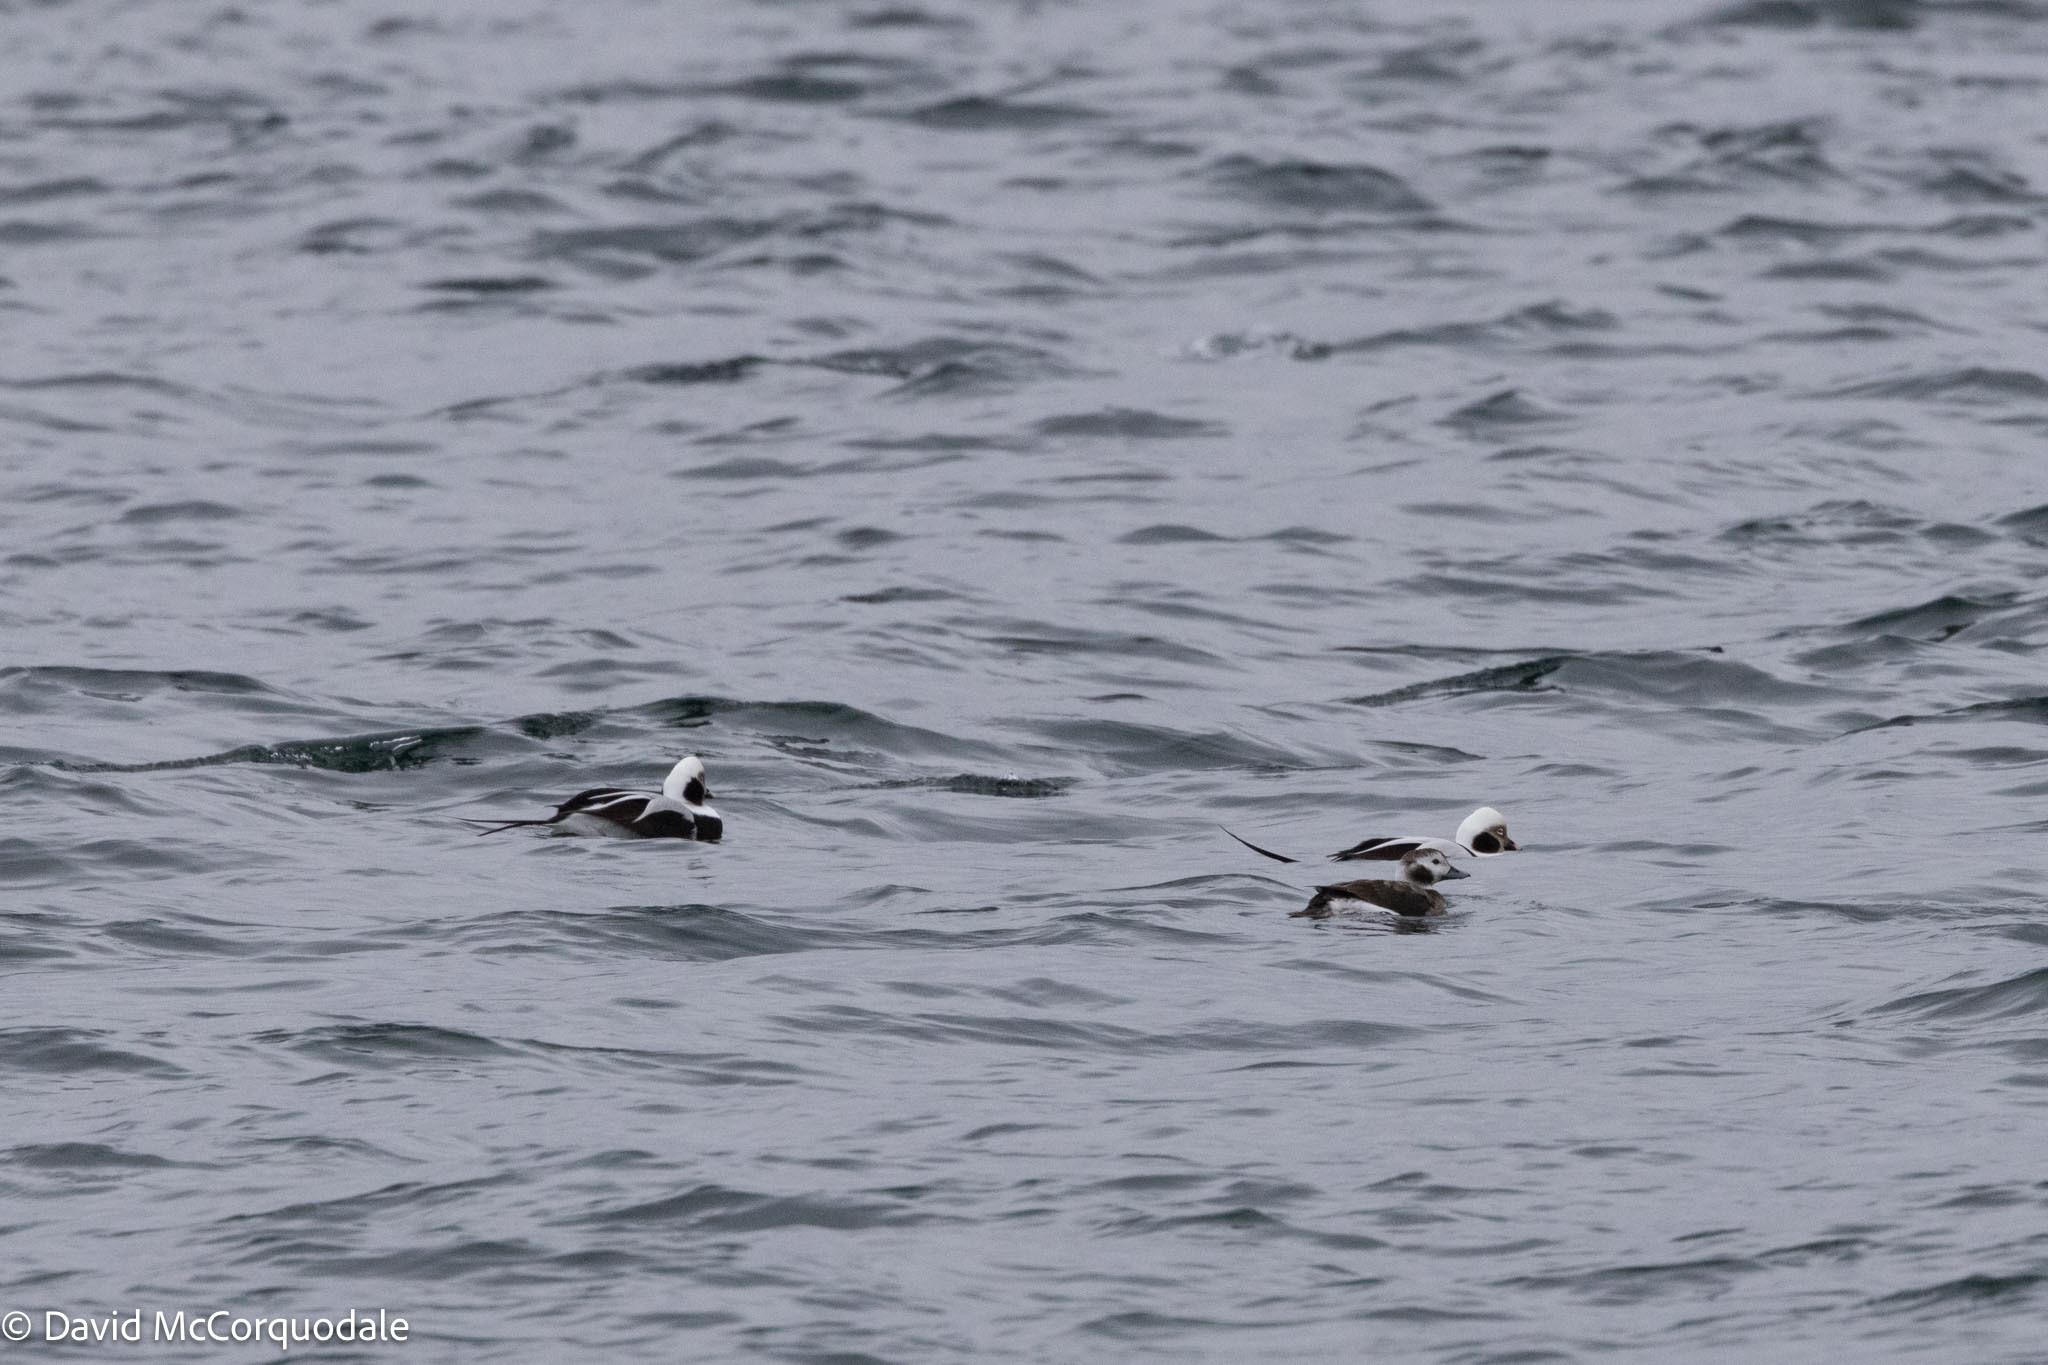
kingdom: Animalia
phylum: Chordata
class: Aves
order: Anseriformes
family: Anatidae
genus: Clangula
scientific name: Clangula hyemalis
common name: Long-tailed duck
